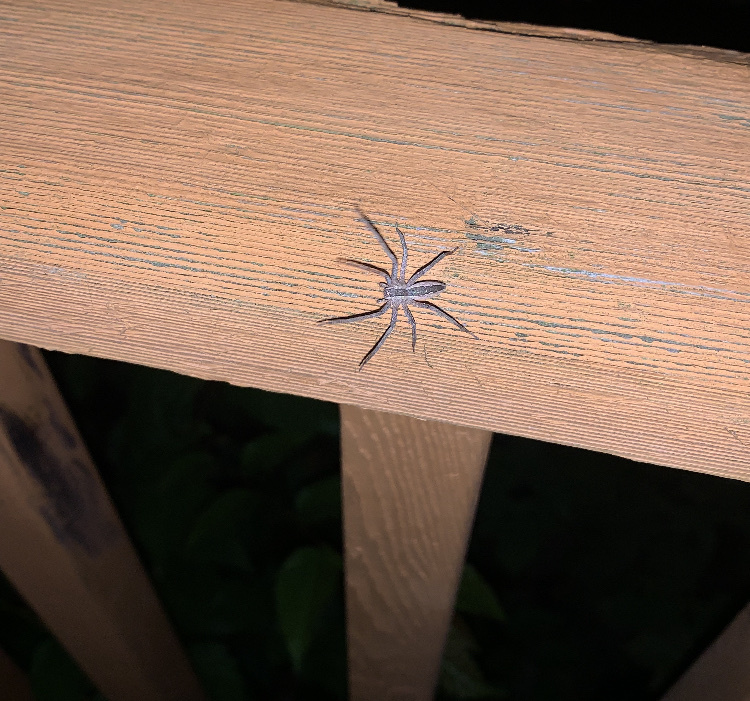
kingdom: Animalia
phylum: Arthropoda
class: Arachnida
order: Araneae
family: Pisauridae
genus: Pisaurina
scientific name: Pisaurina mira
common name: American nursery web spider
